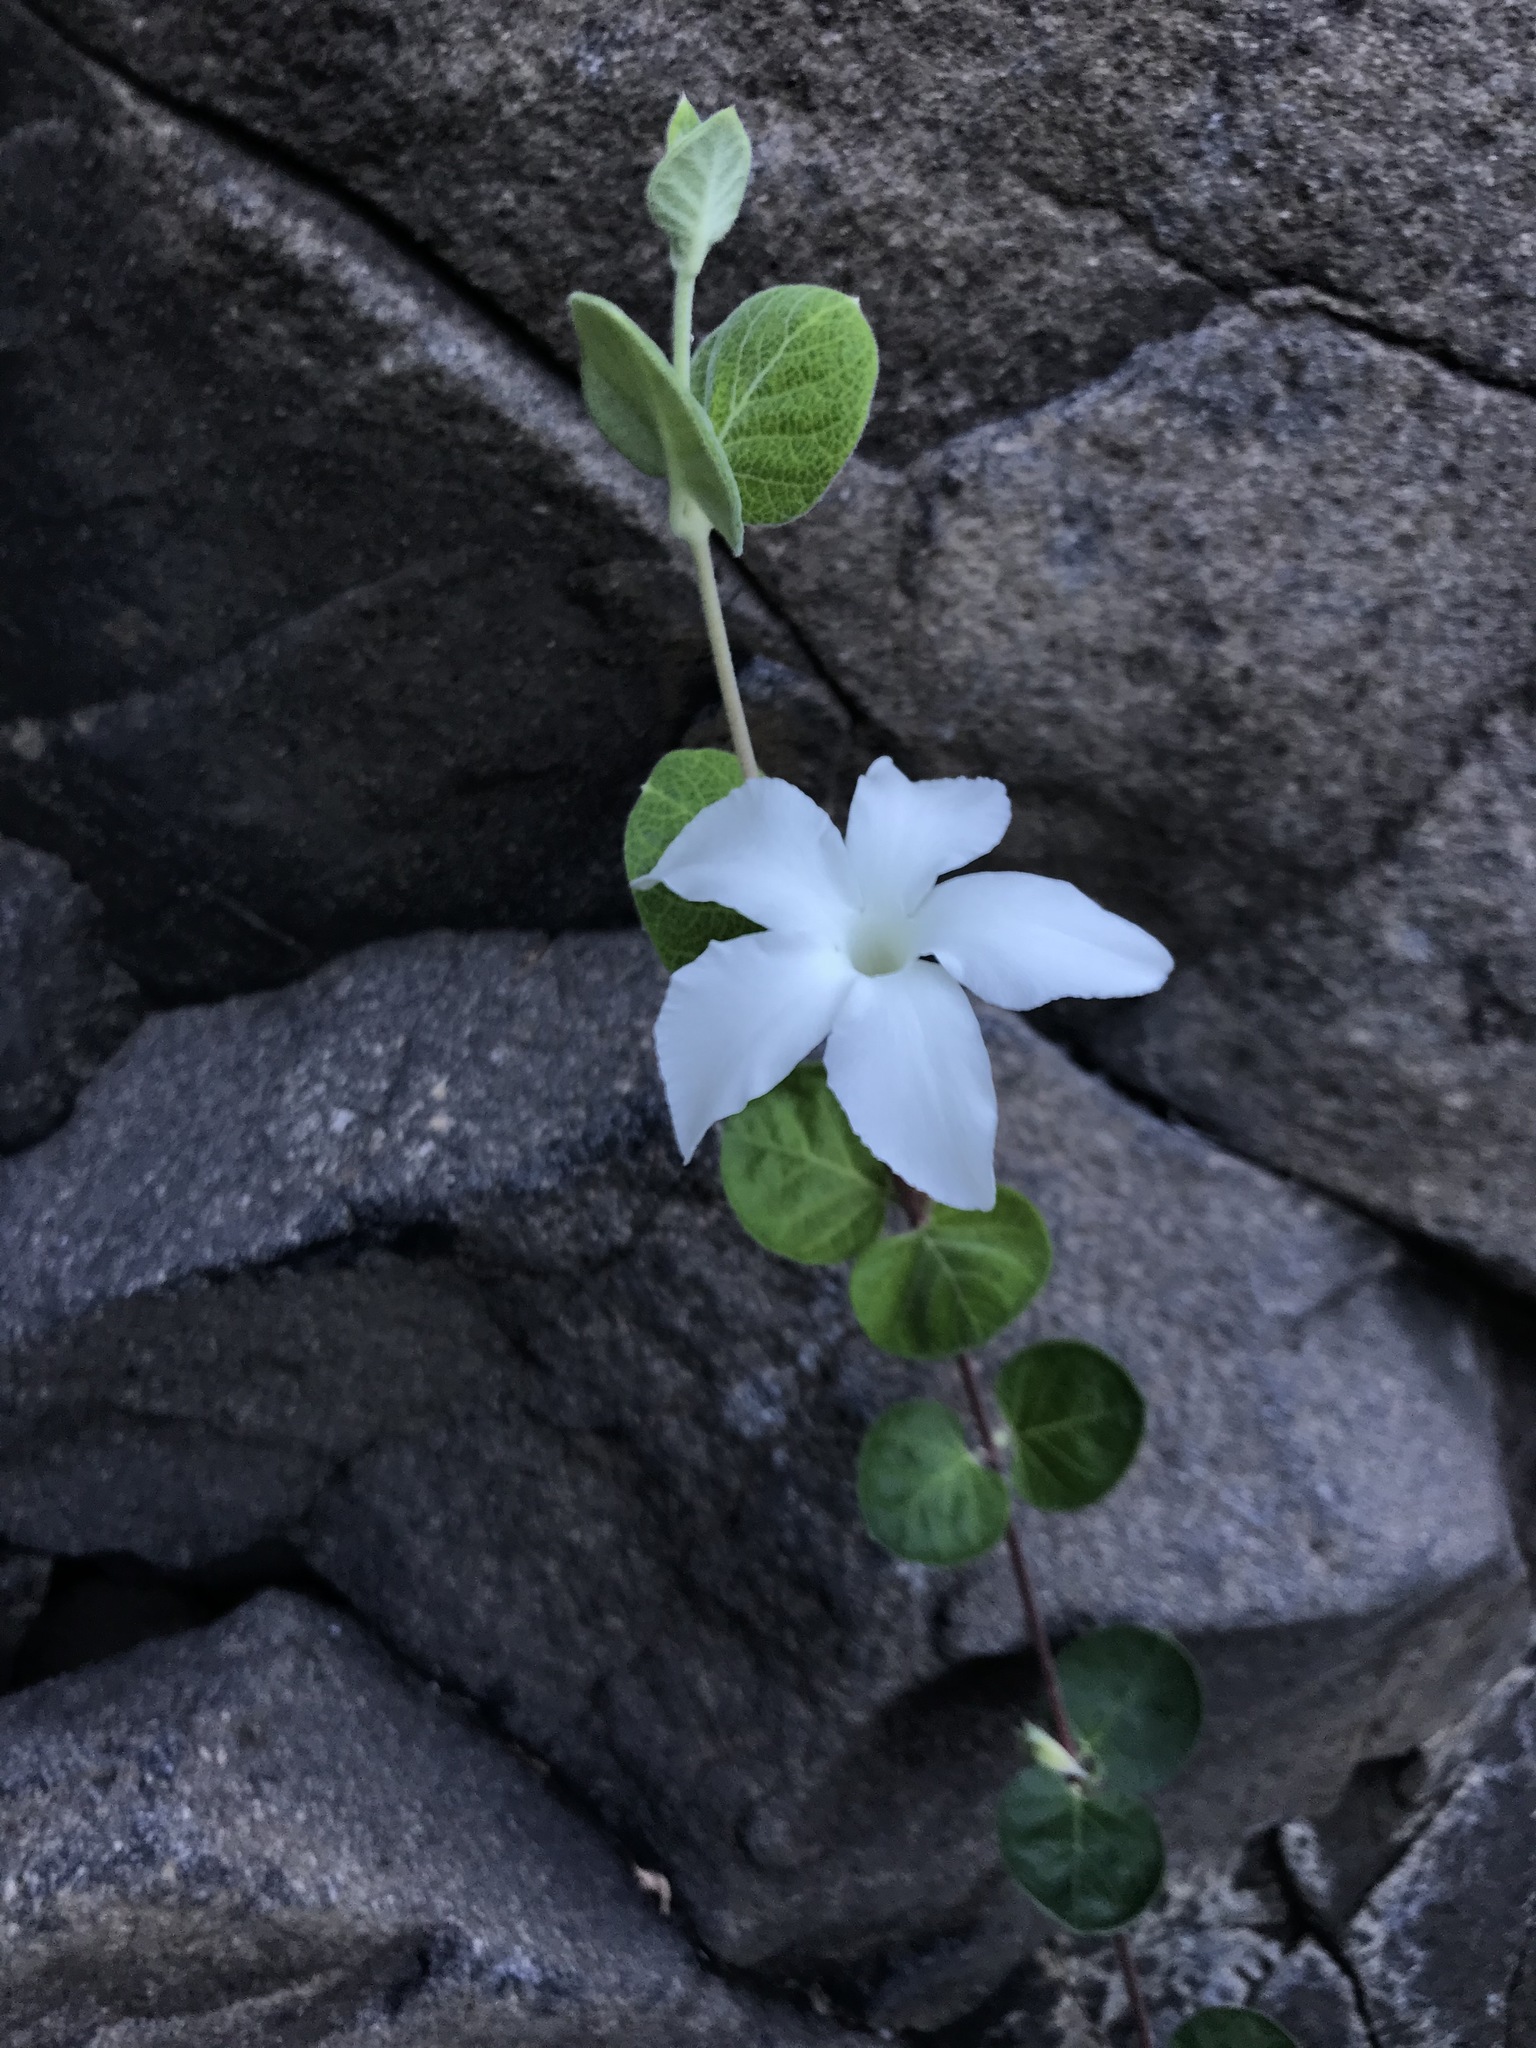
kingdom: Plantae
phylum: Tracheophyta
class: Magnoliopsida
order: Gentianales
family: Apocynaceae
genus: Mandevilla
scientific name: Mandevilla hesperia
